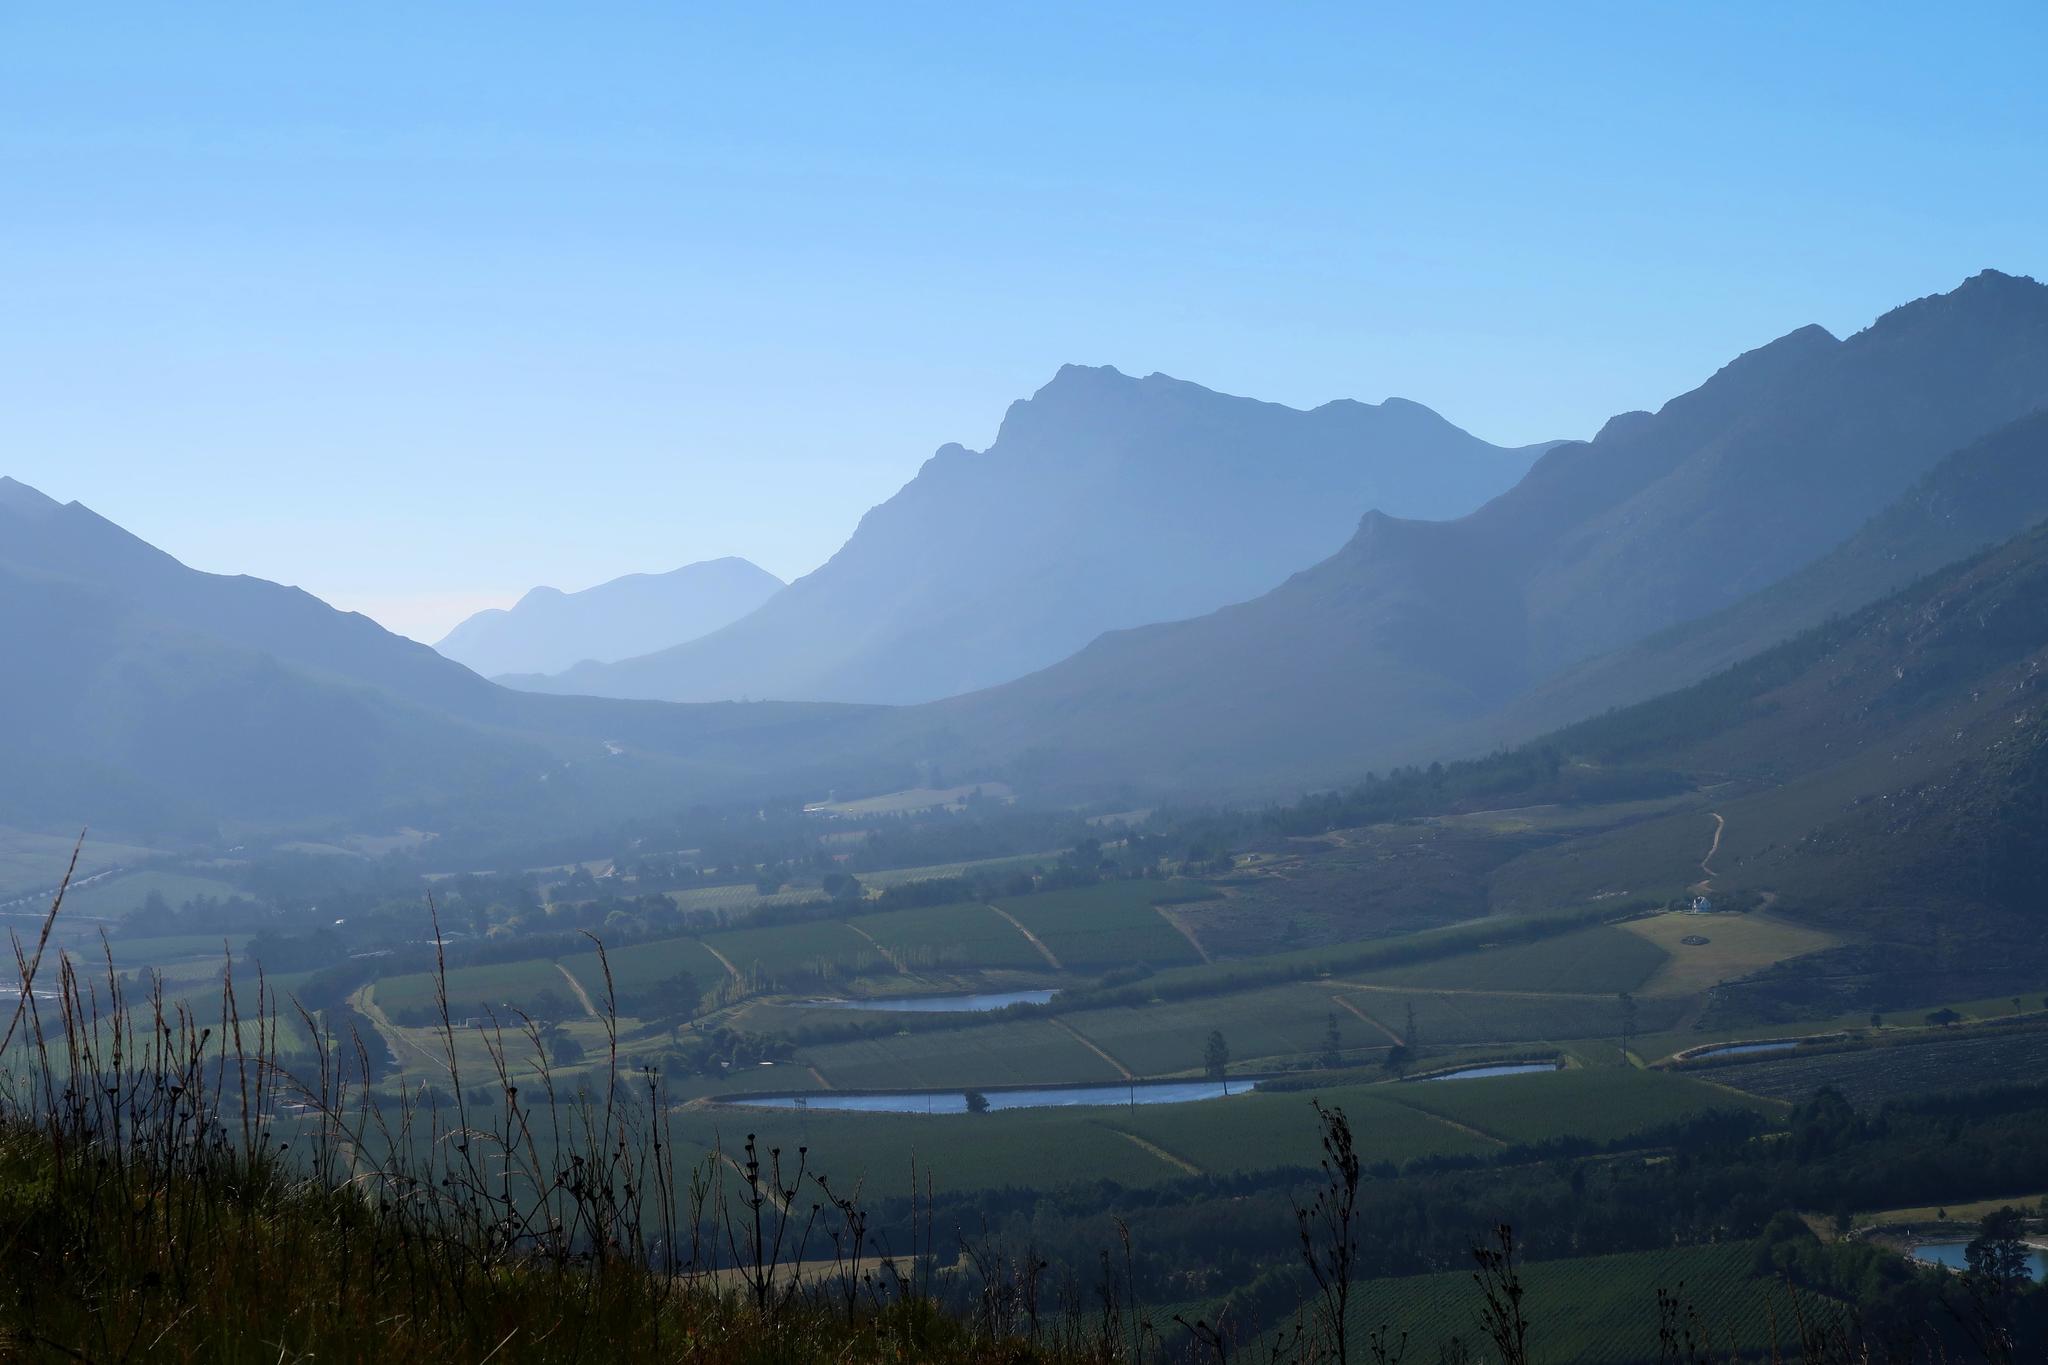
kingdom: Plantae
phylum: Tracheophyta
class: Magnoliopsida
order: Fabales
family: Fabaceae
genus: Acacia
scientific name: Acacia mearnsii
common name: Black wattle
